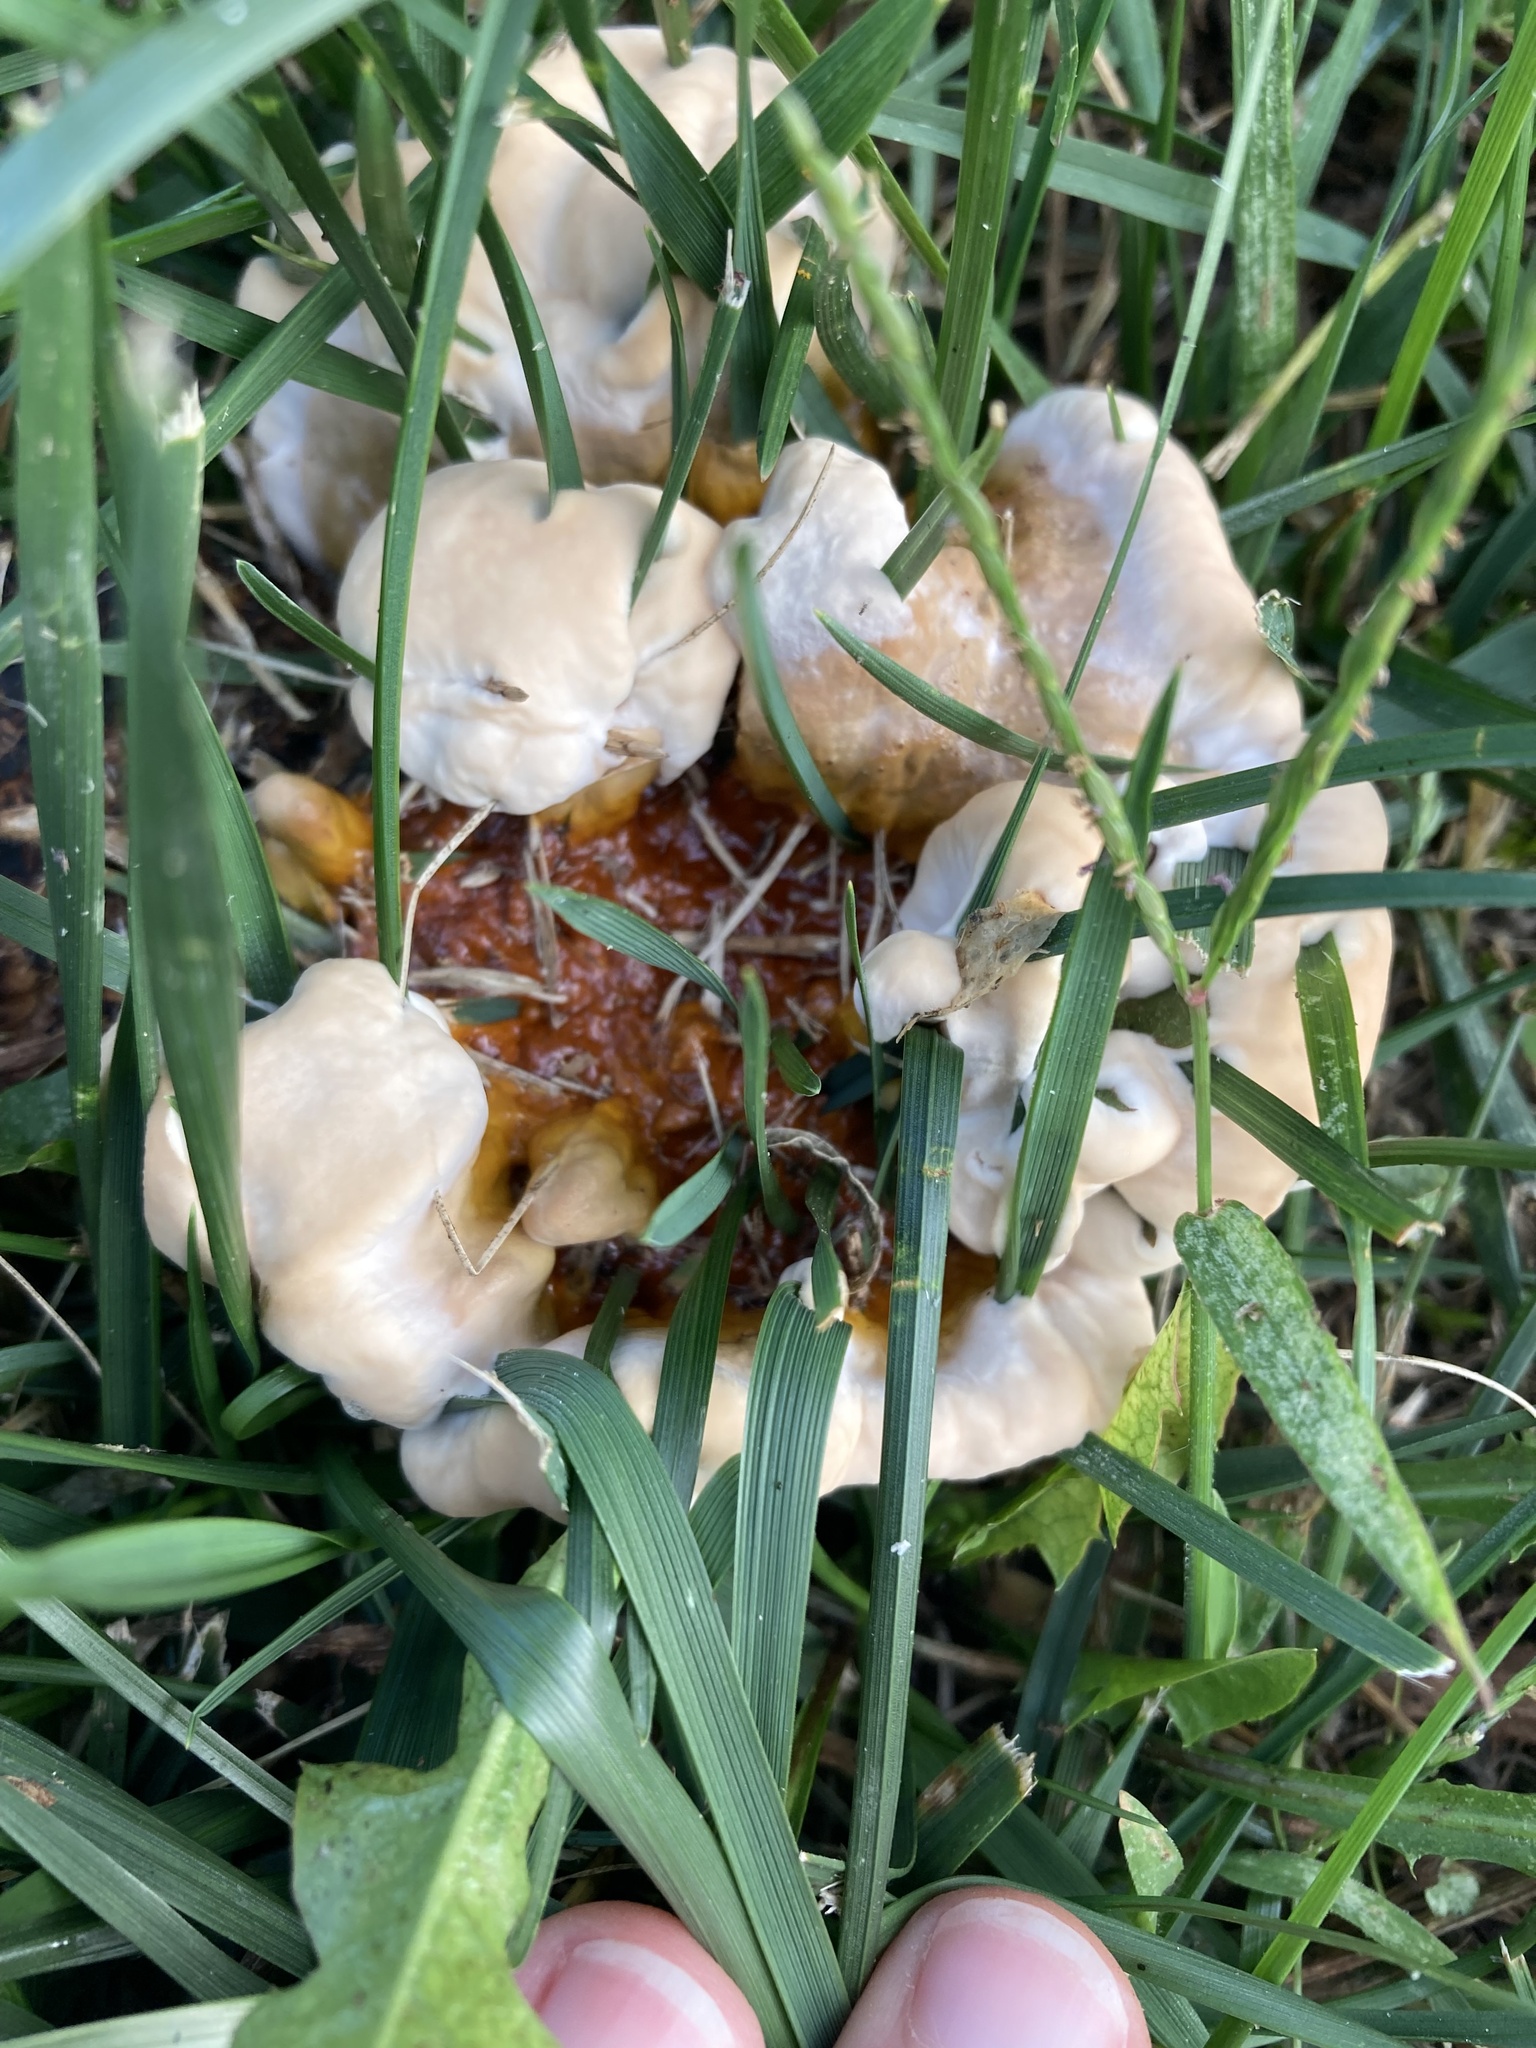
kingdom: Fungi
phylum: Basidiomycota
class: Agaricomycetes
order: Polyporales
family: Polyporaceae
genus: Ganoderma
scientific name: Ganoderma resinaceum
